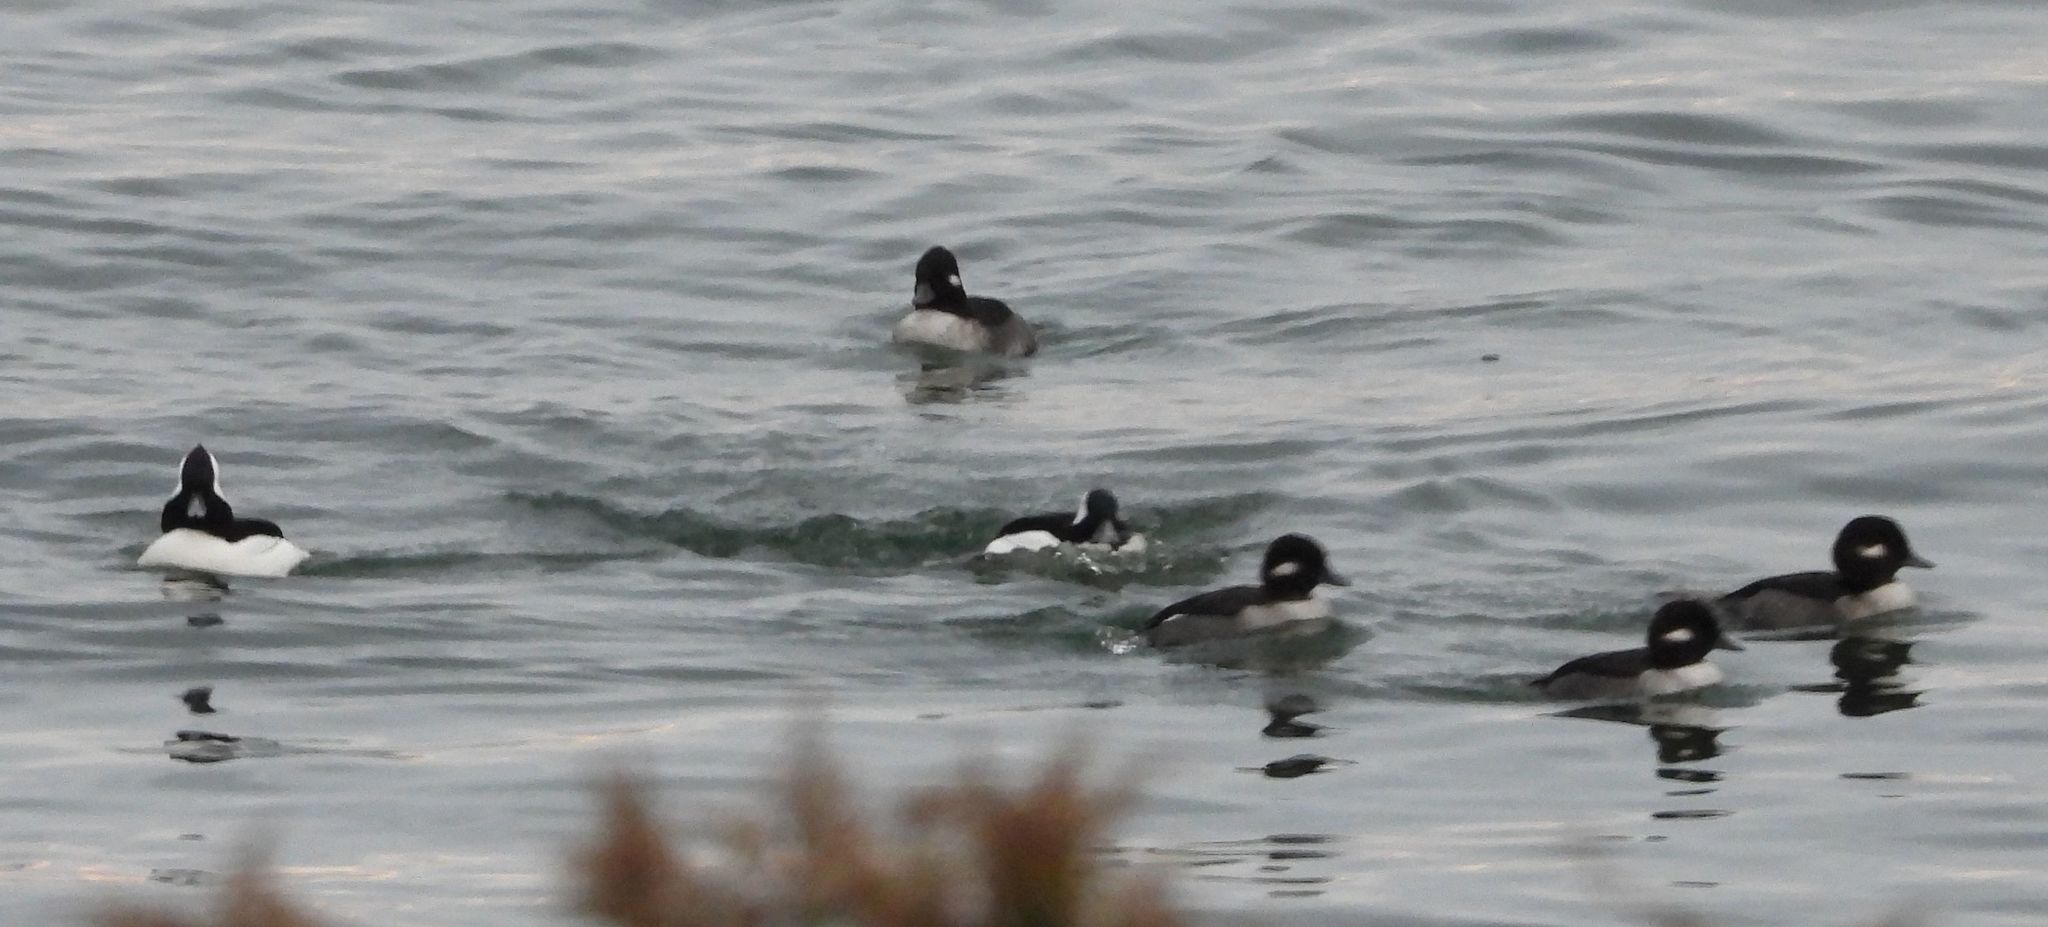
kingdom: Animalia
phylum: Chordata
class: Aves
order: Anseriformes
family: Anatidae
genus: Bucephala
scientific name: Bucephala albeola
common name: Bufflehead
